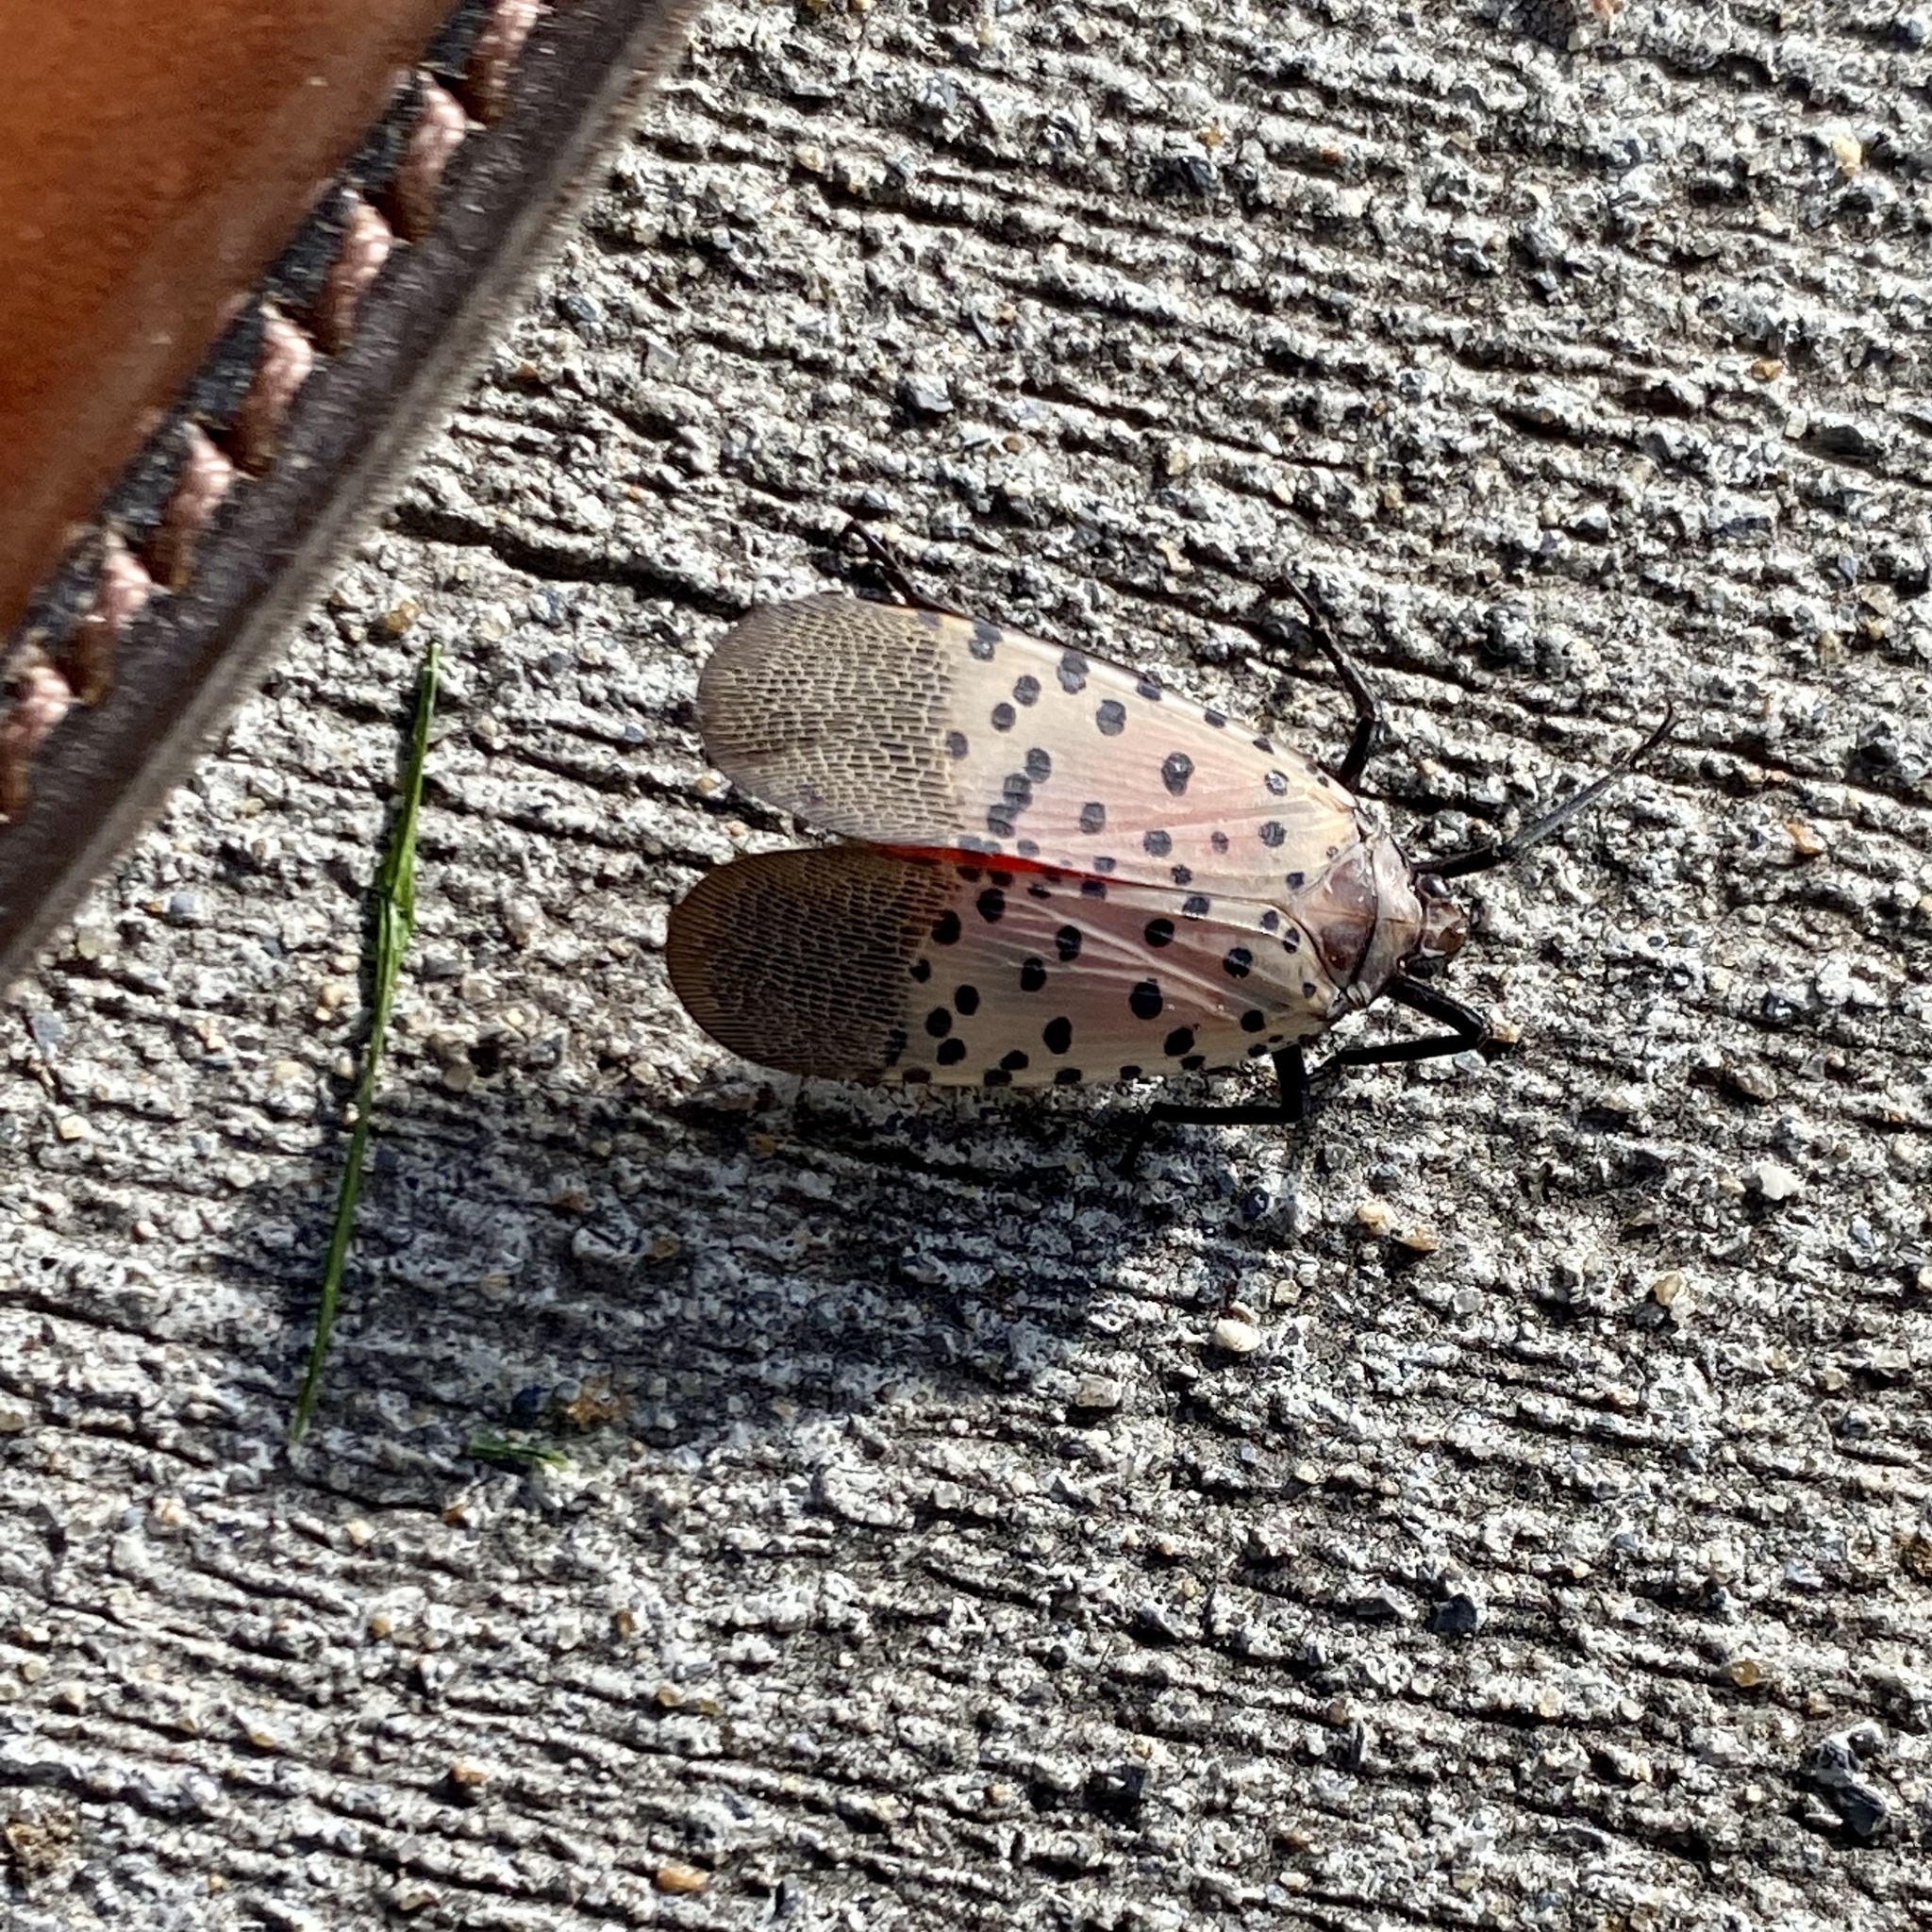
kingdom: Animalia
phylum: Arthropoda
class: Insecta
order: Hemiptera
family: Fulgoridae
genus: Lycorma
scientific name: Lycorma delicatula
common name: Spotted lanternfly
